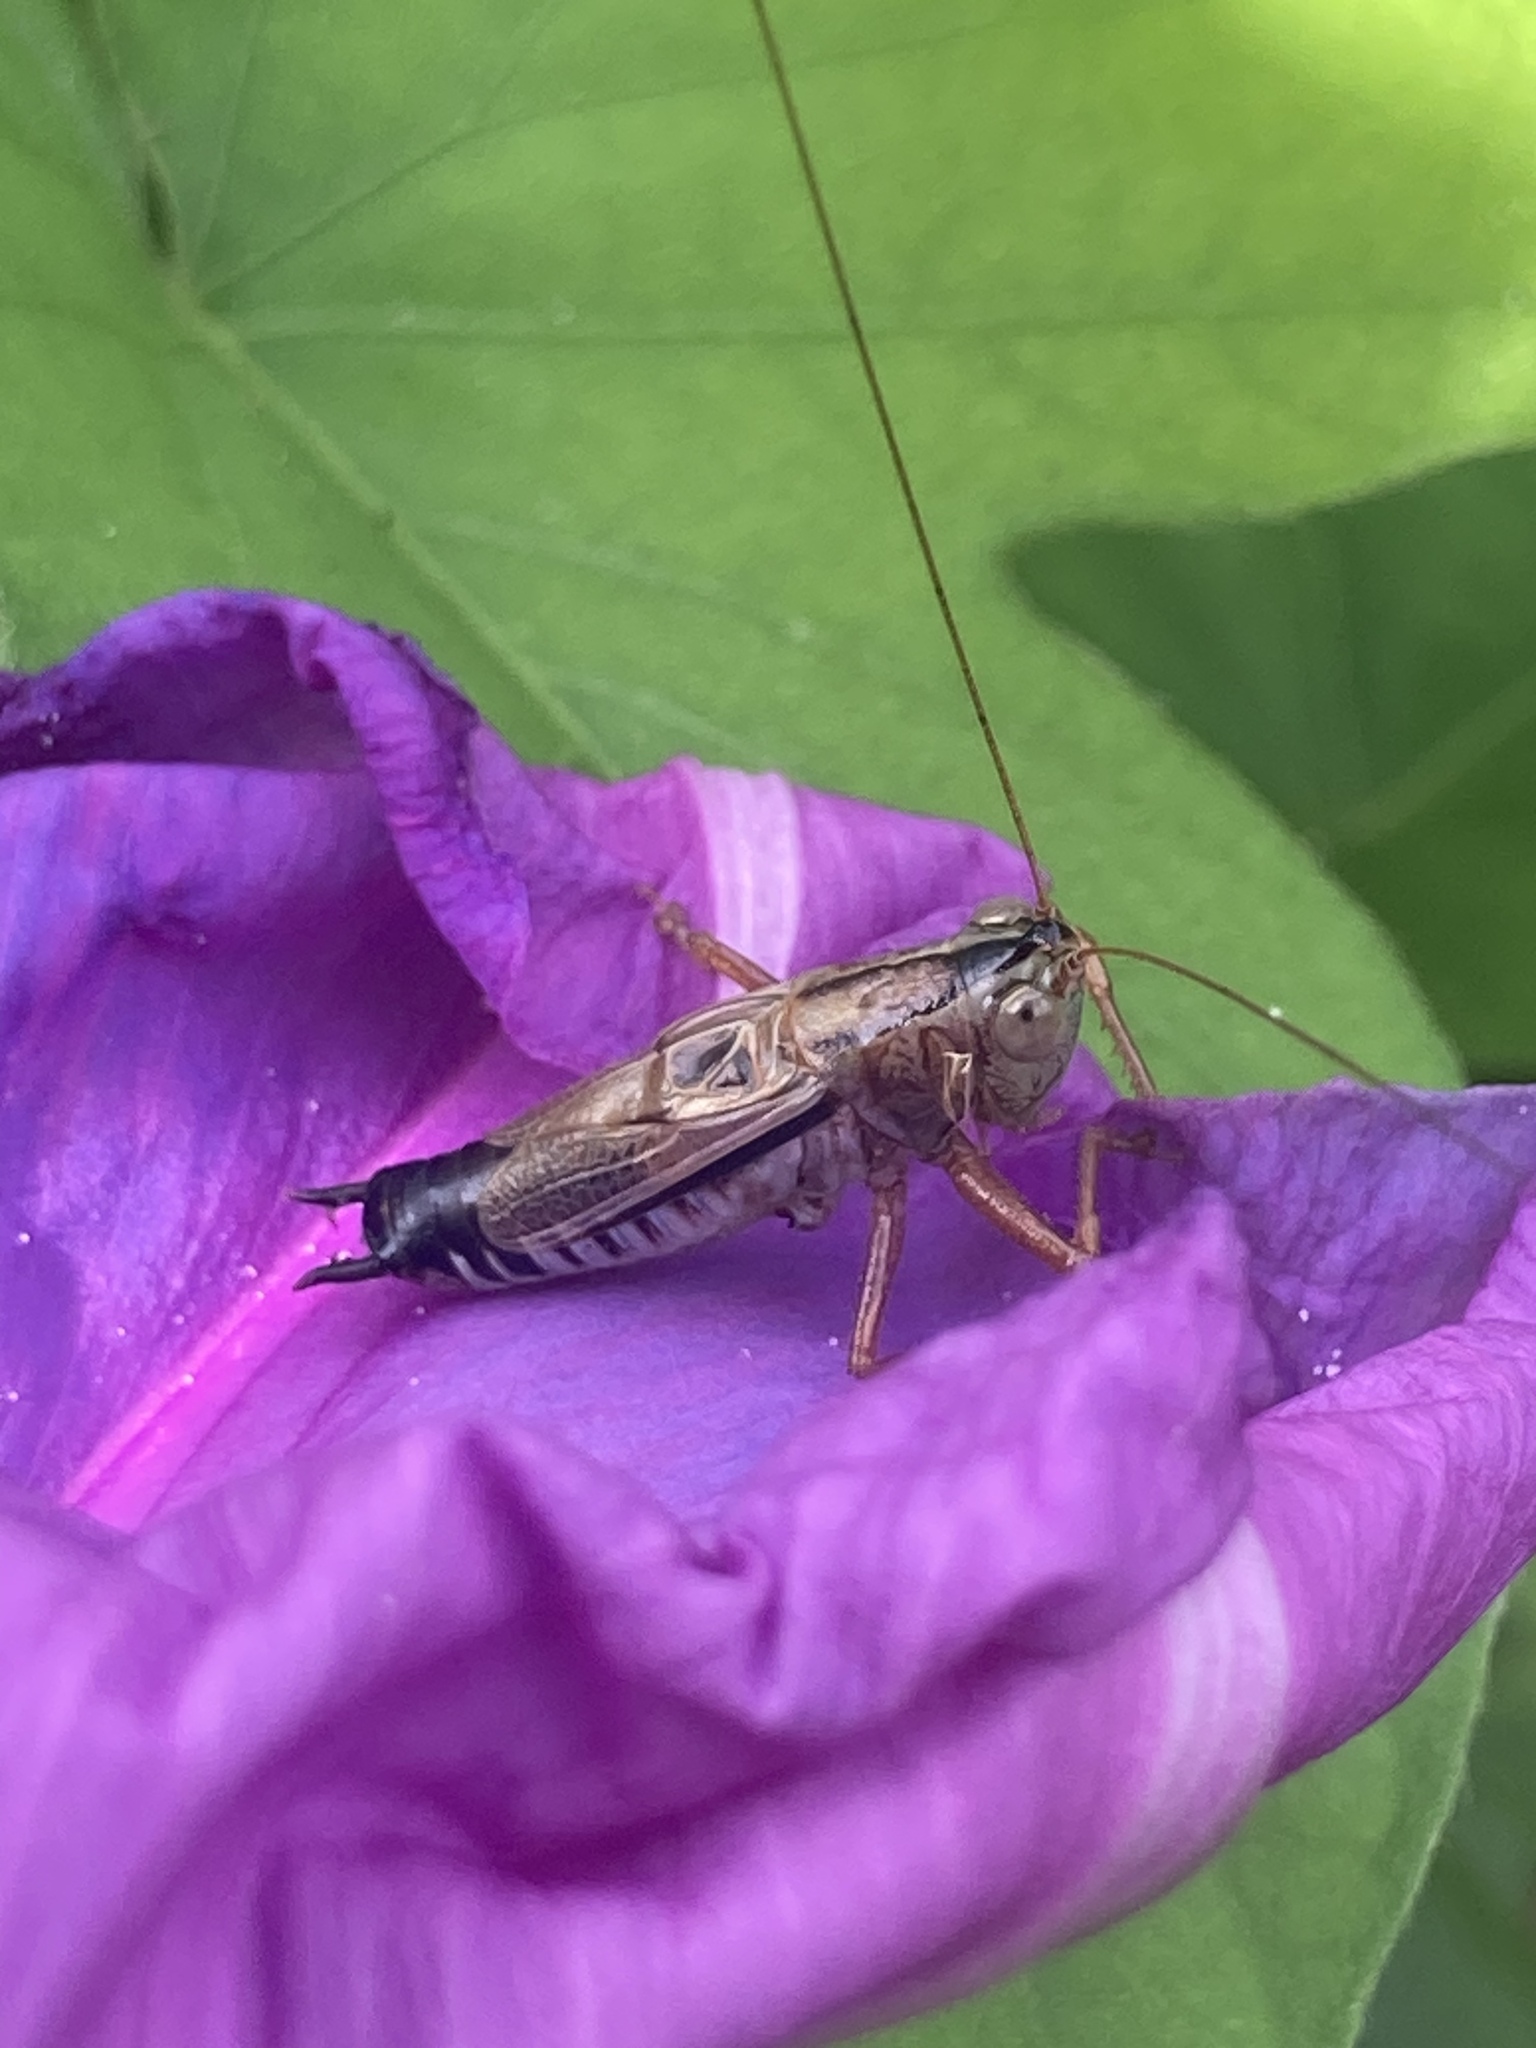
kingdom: Animalia
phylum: Arthropoda
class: Insecta
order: Orthoptera
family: Tettigoniidae
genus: Conocephalus
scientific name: Conocephalus semivittatus
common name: Blackish meadow katydid
